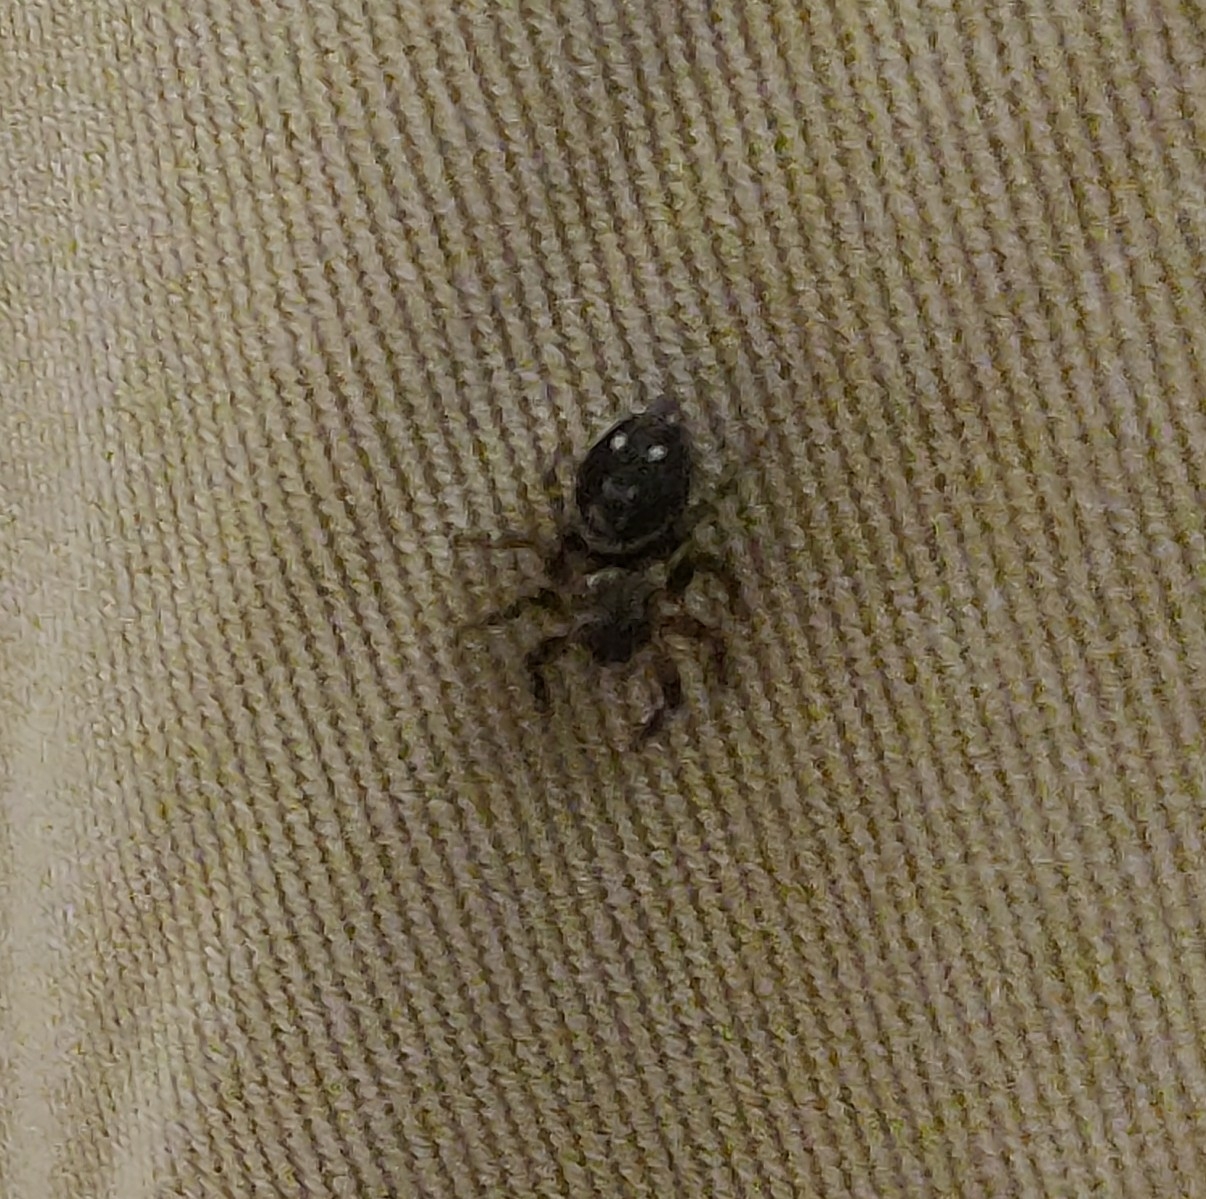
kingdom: Animalia
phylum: Arthropoda
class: Arachnida
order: Araneae
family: Salticidae
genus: Hasarius
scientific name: Hasarius adansoni
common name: Jumping spider
